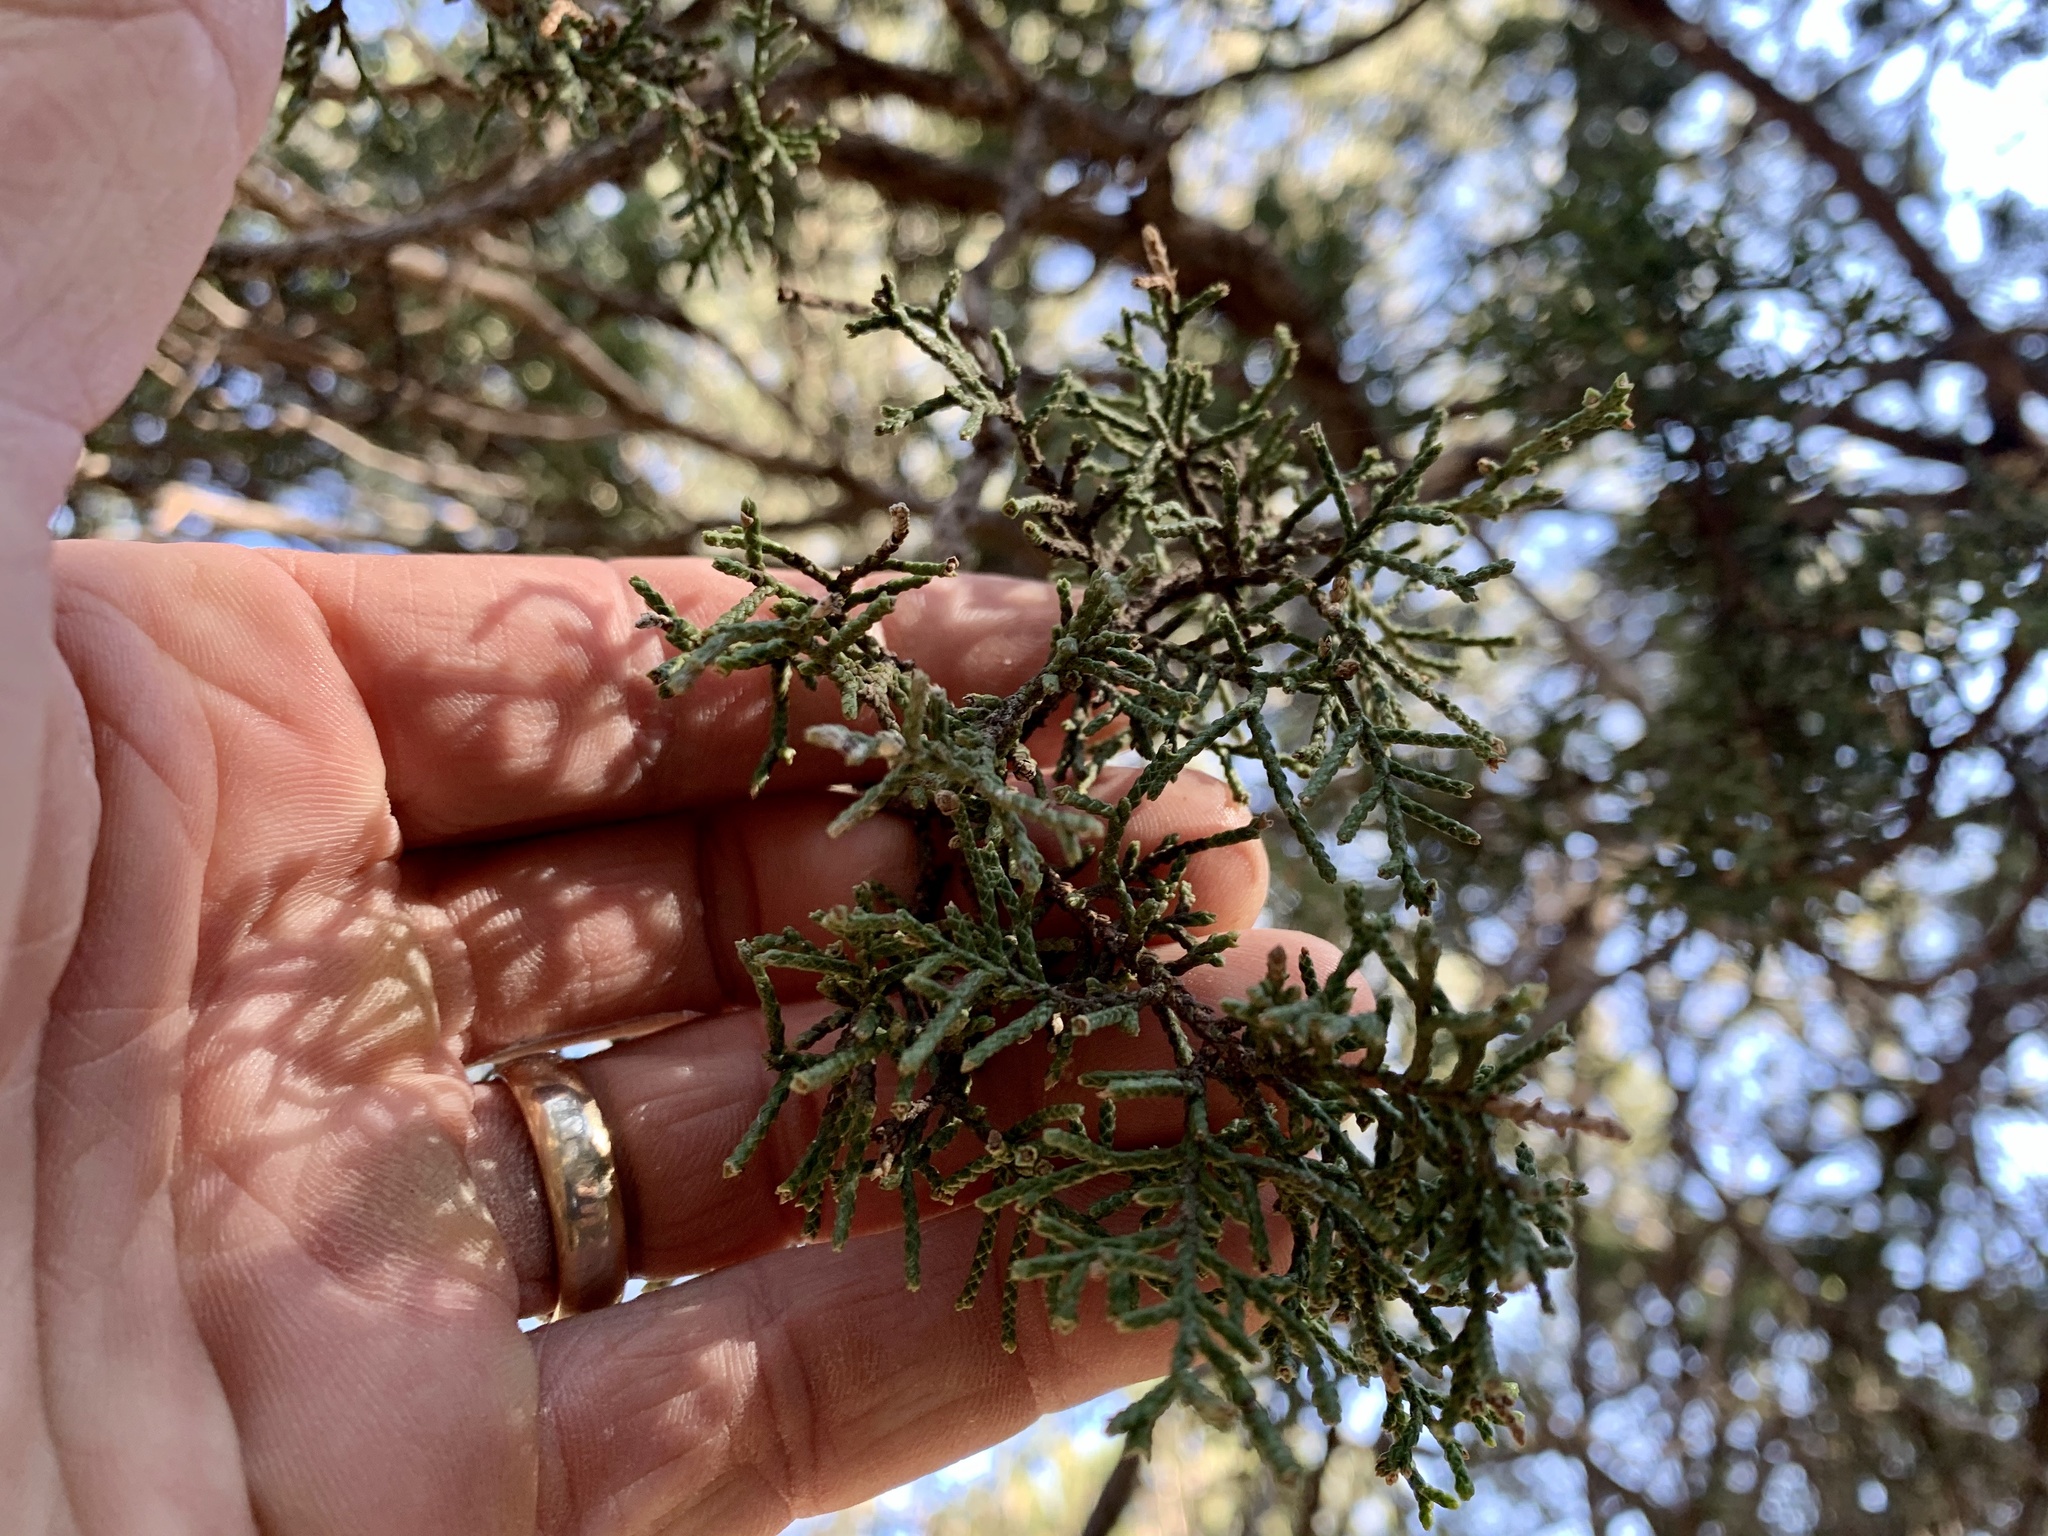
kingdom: Plantae
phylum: Tracheophyta
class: Pinopsida
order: Pinales
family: Cupressaceae
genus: Juniperus
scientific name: Juniperus deppeana
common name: Alligator juniper
